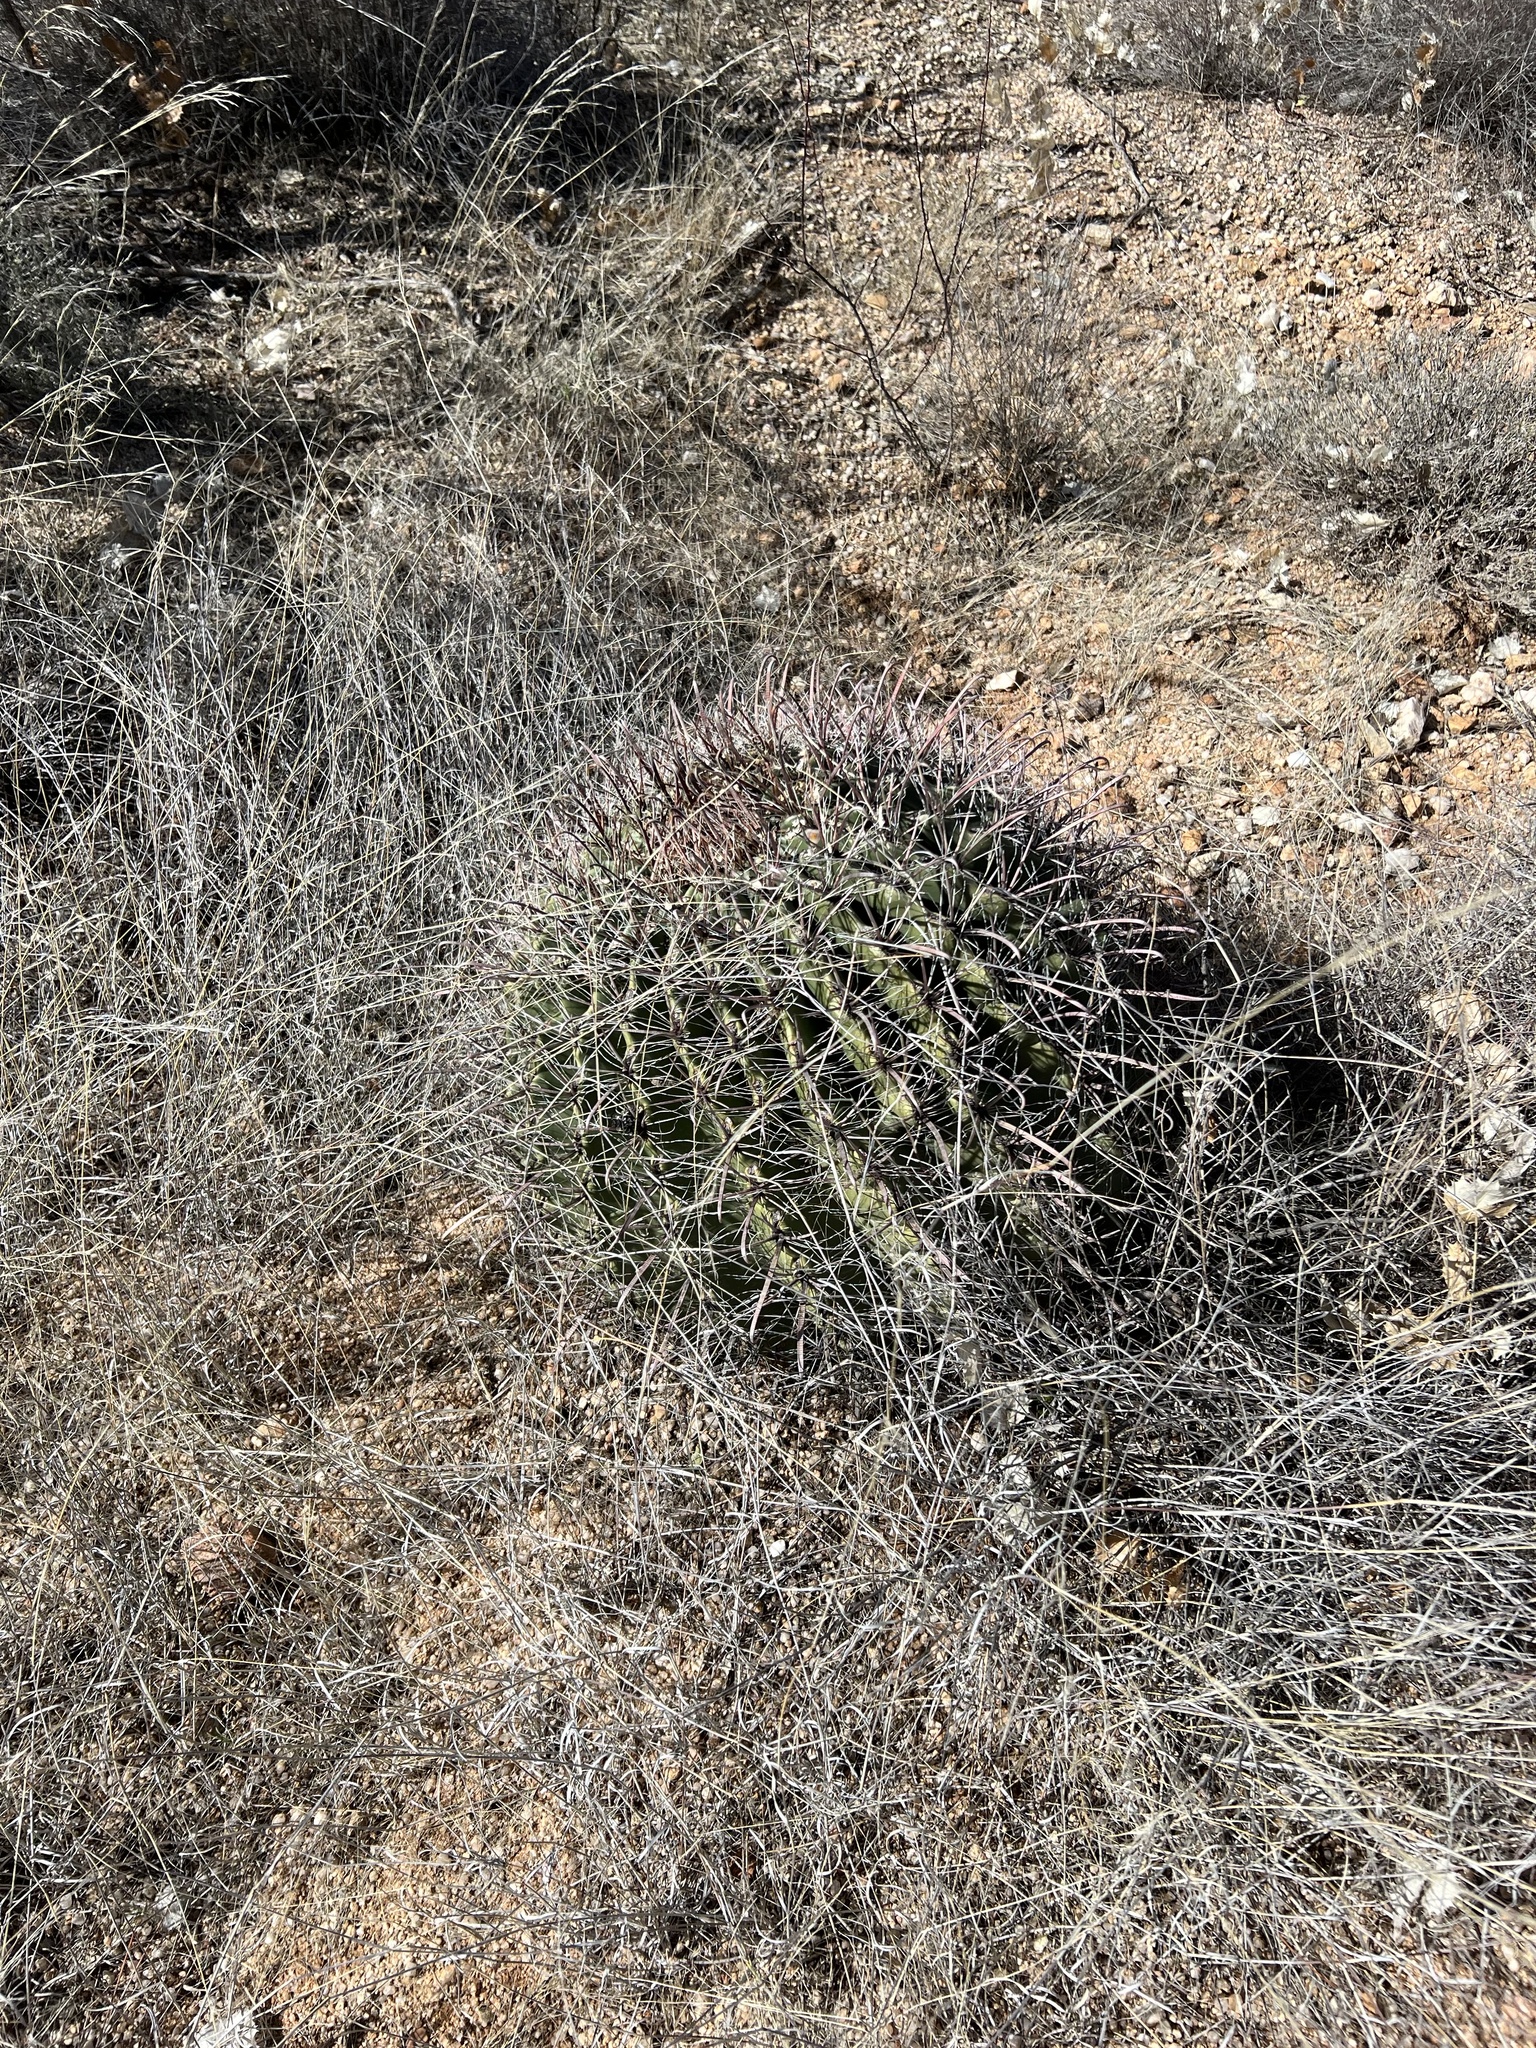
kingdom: Plantae
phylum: Tracheophyta
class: Magnoliopsida
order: Caryophyllales
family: Cactaceae
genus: Ferocactus
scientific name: Ferocactus wislizeni
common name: Candy barrel cactus
